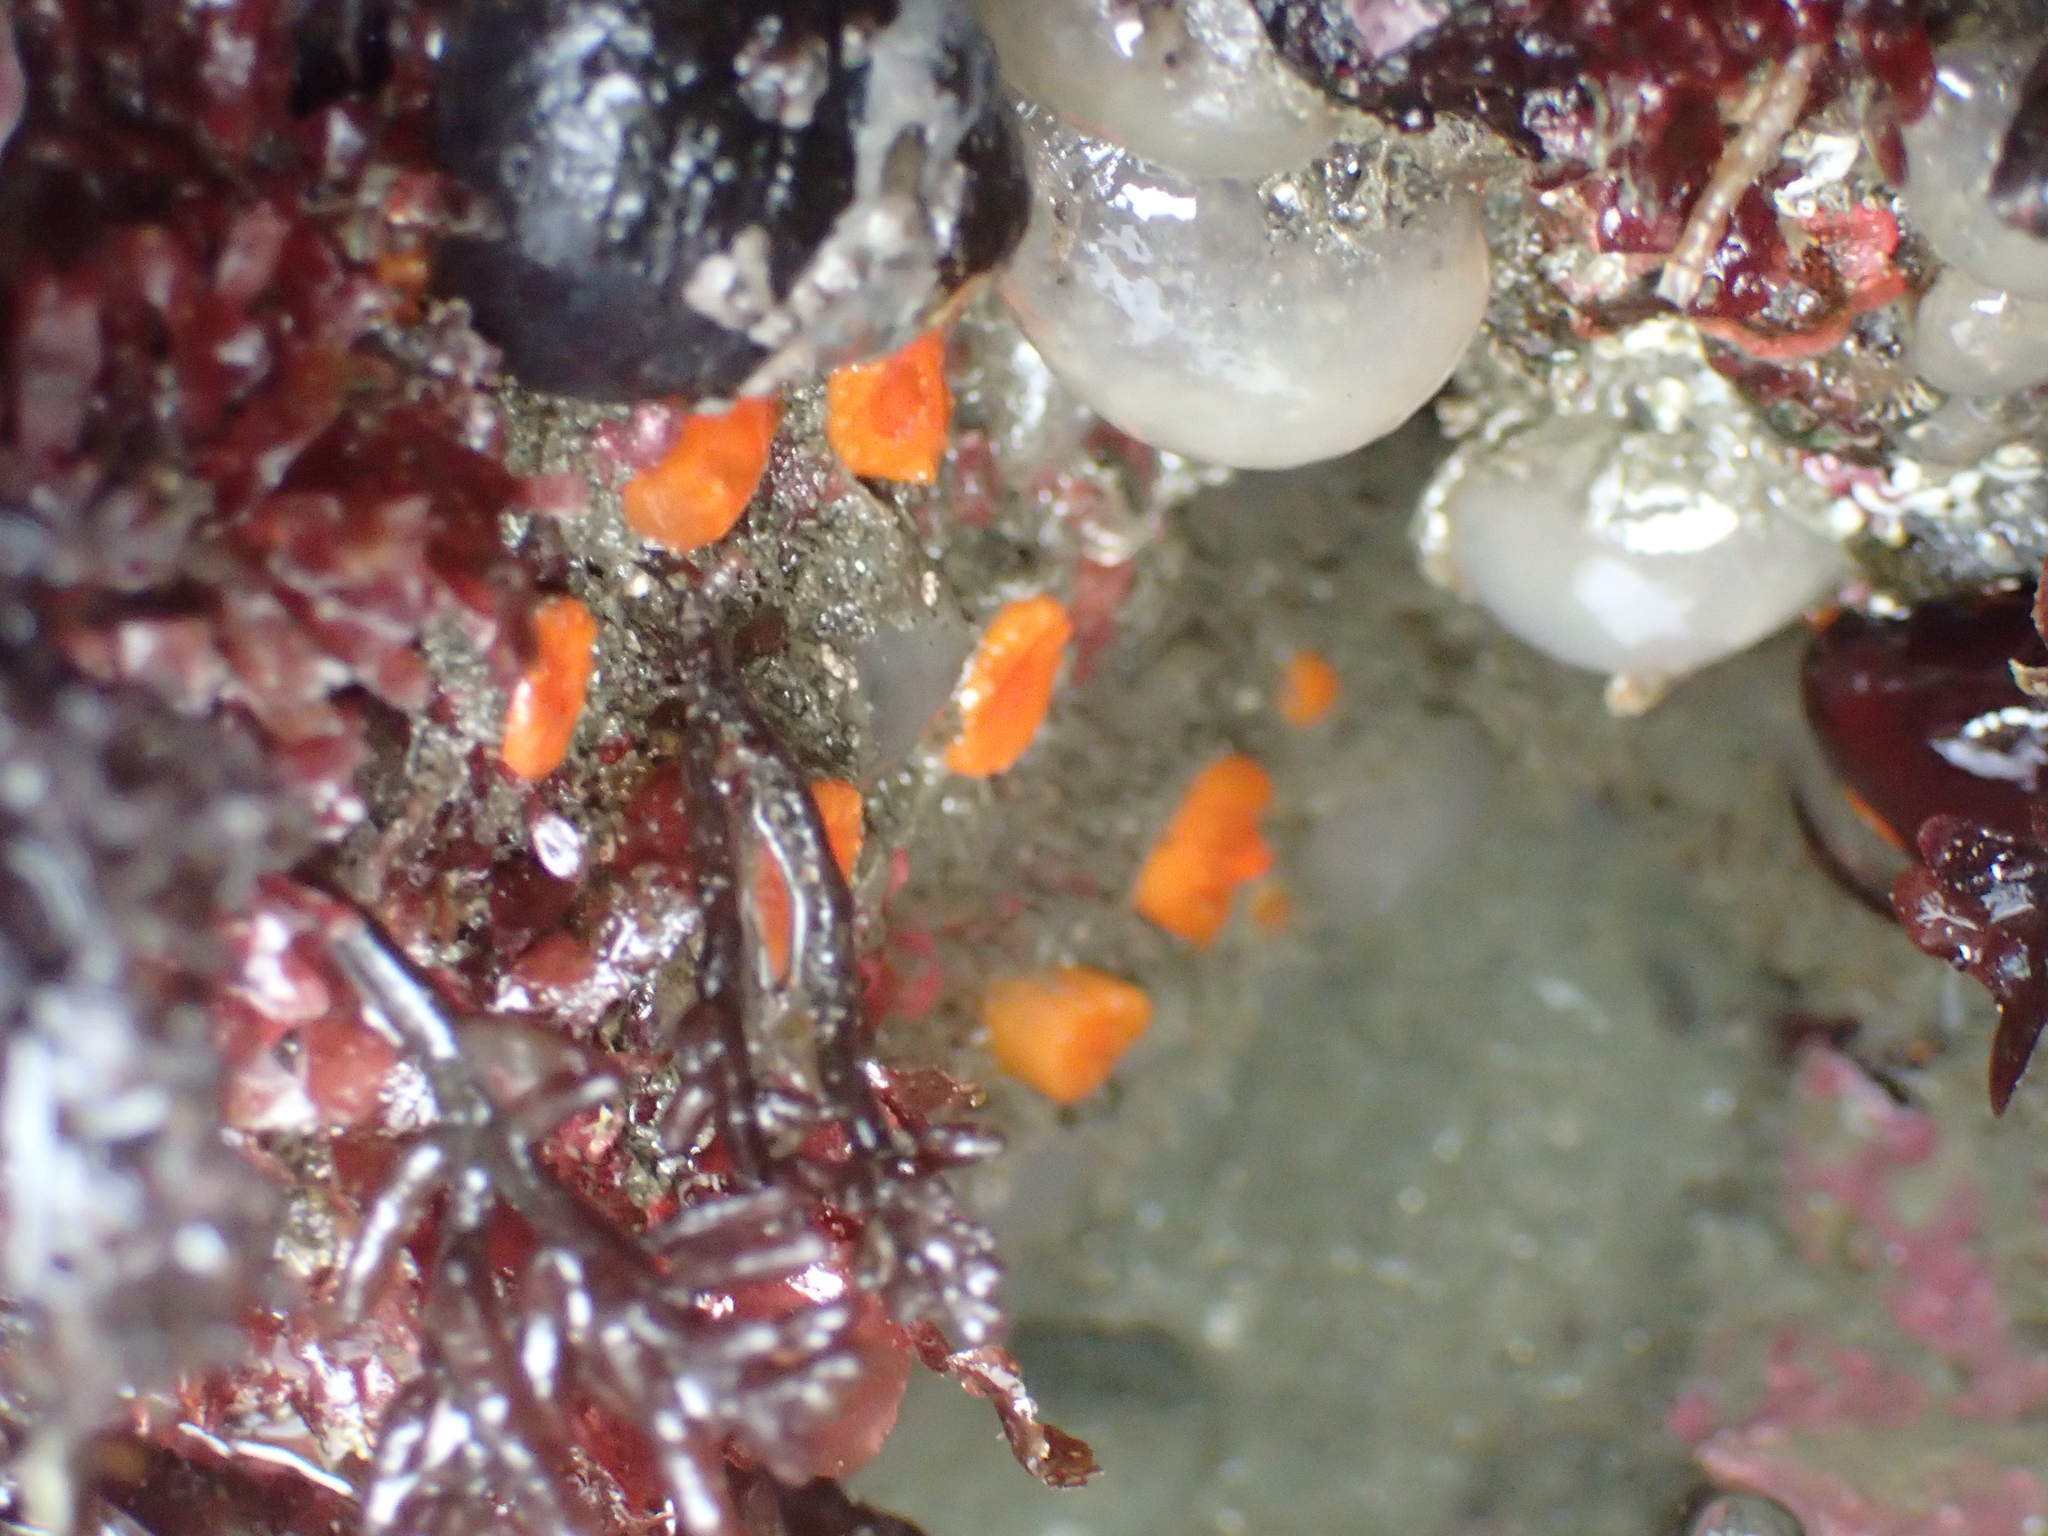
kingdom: Animalia
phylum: Cnidaria
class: Anthozoa
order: Scleractinia
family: Dendrophylliidae
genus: Balanophyllia
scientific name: Balanophyllia elegans
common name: Orange stony coral
